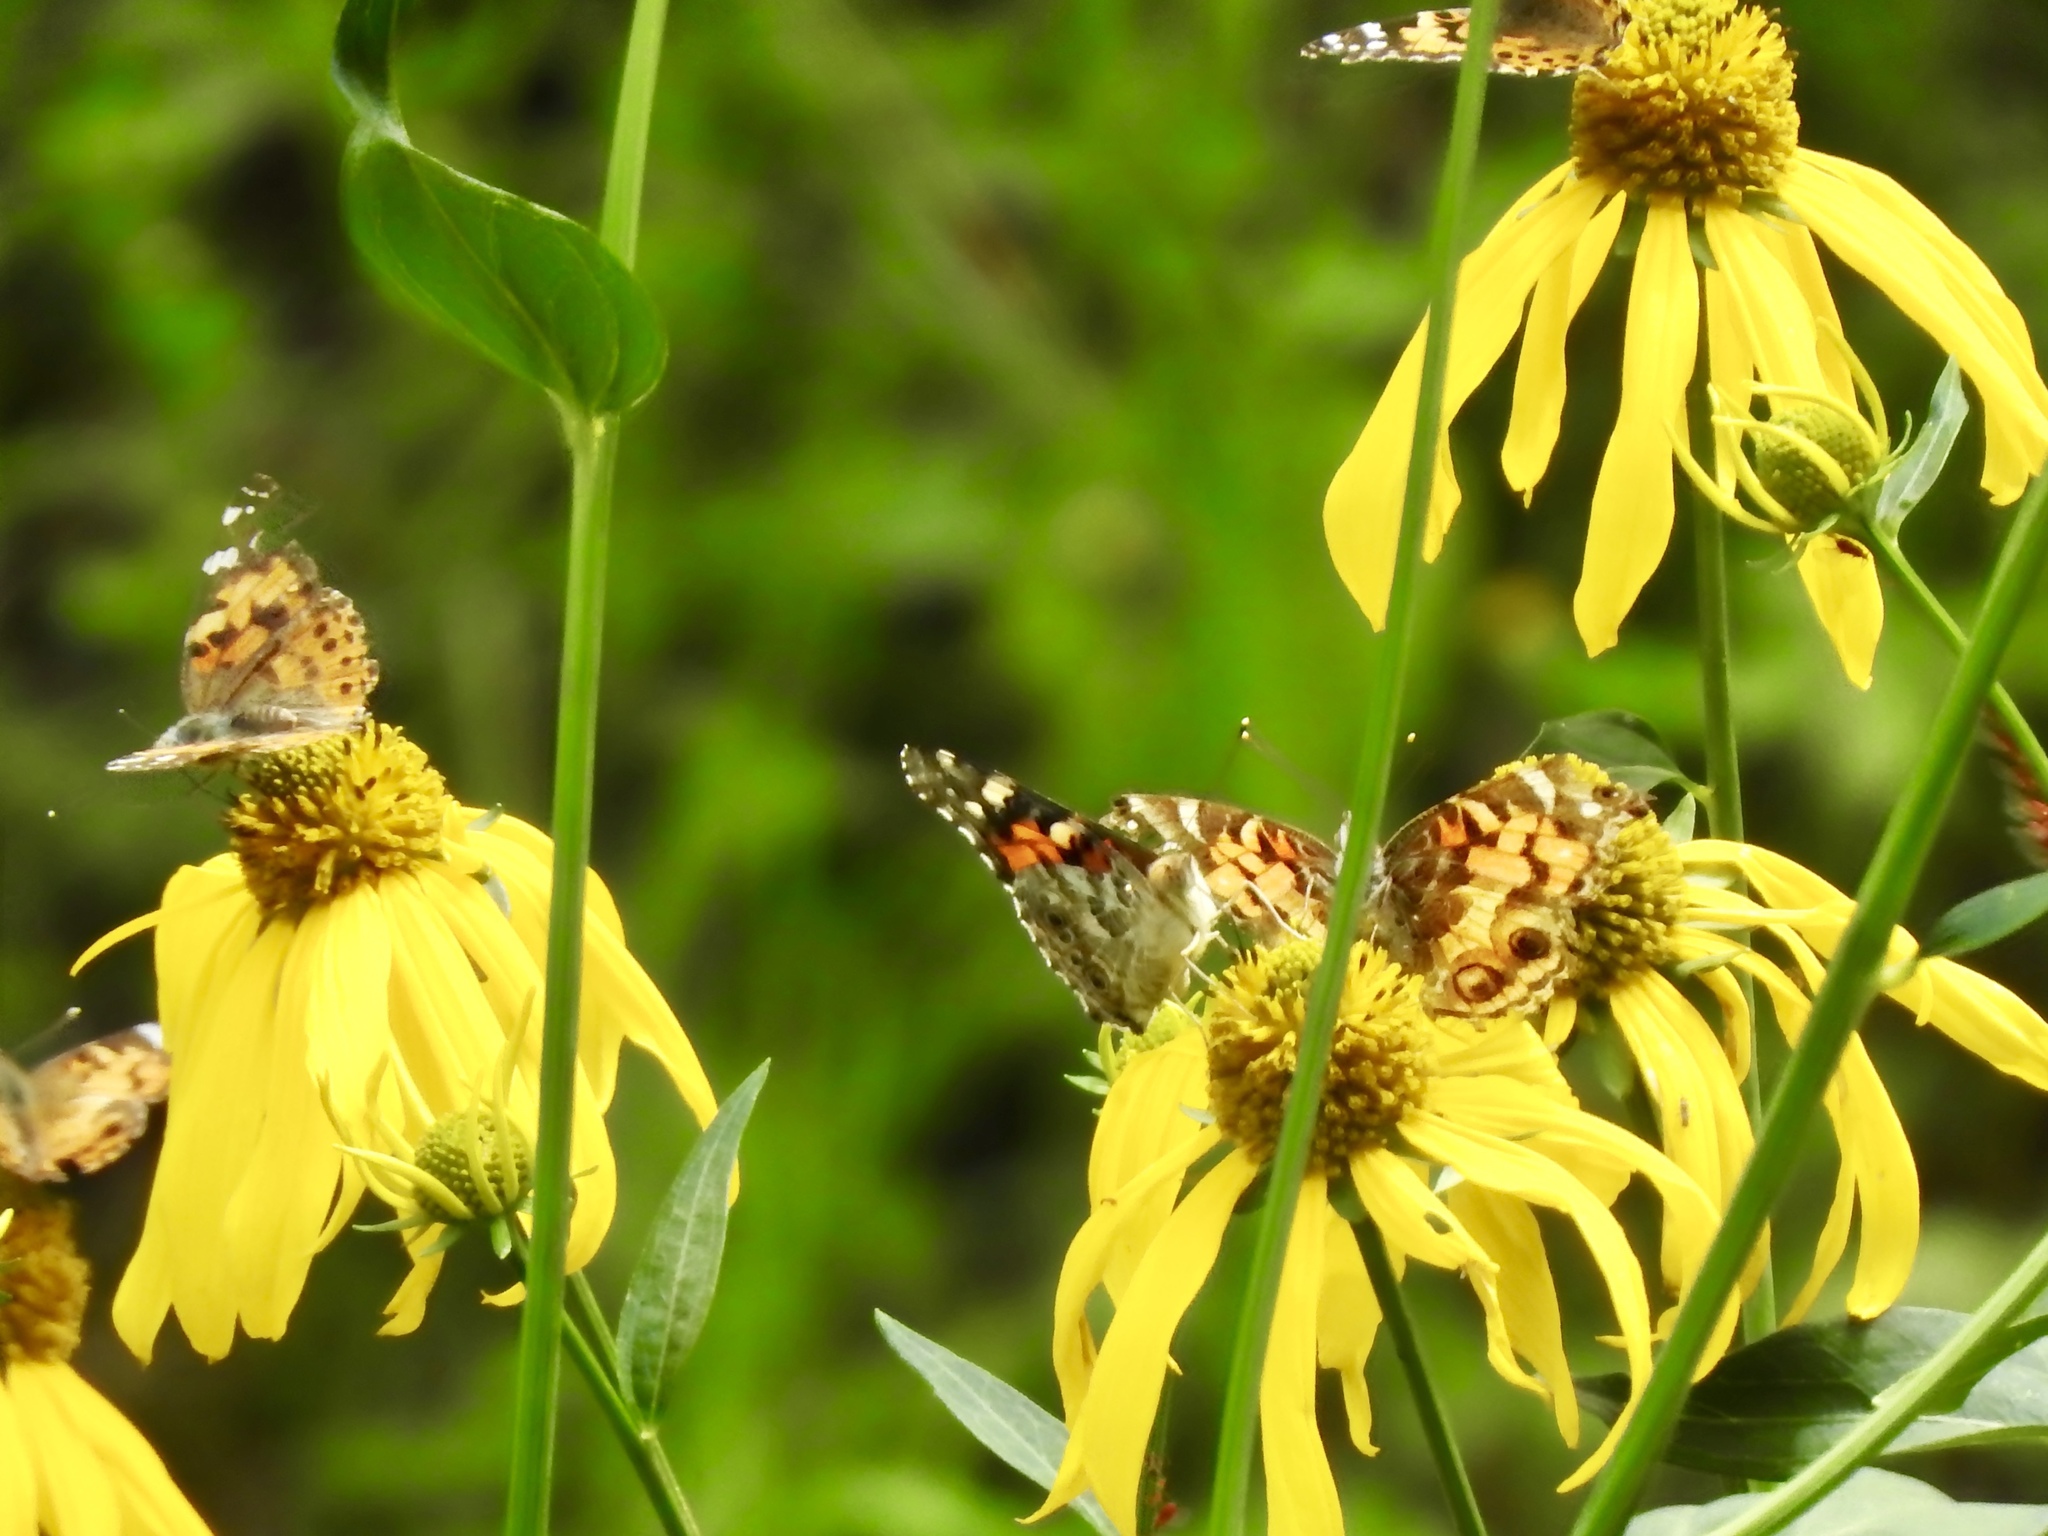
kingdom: Animalia
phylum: Arthropoda
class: Insecta
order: Lepidoptera
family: Nymphalidae
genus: Vanessa
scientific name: Vanessa cardui
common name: Painted lady
